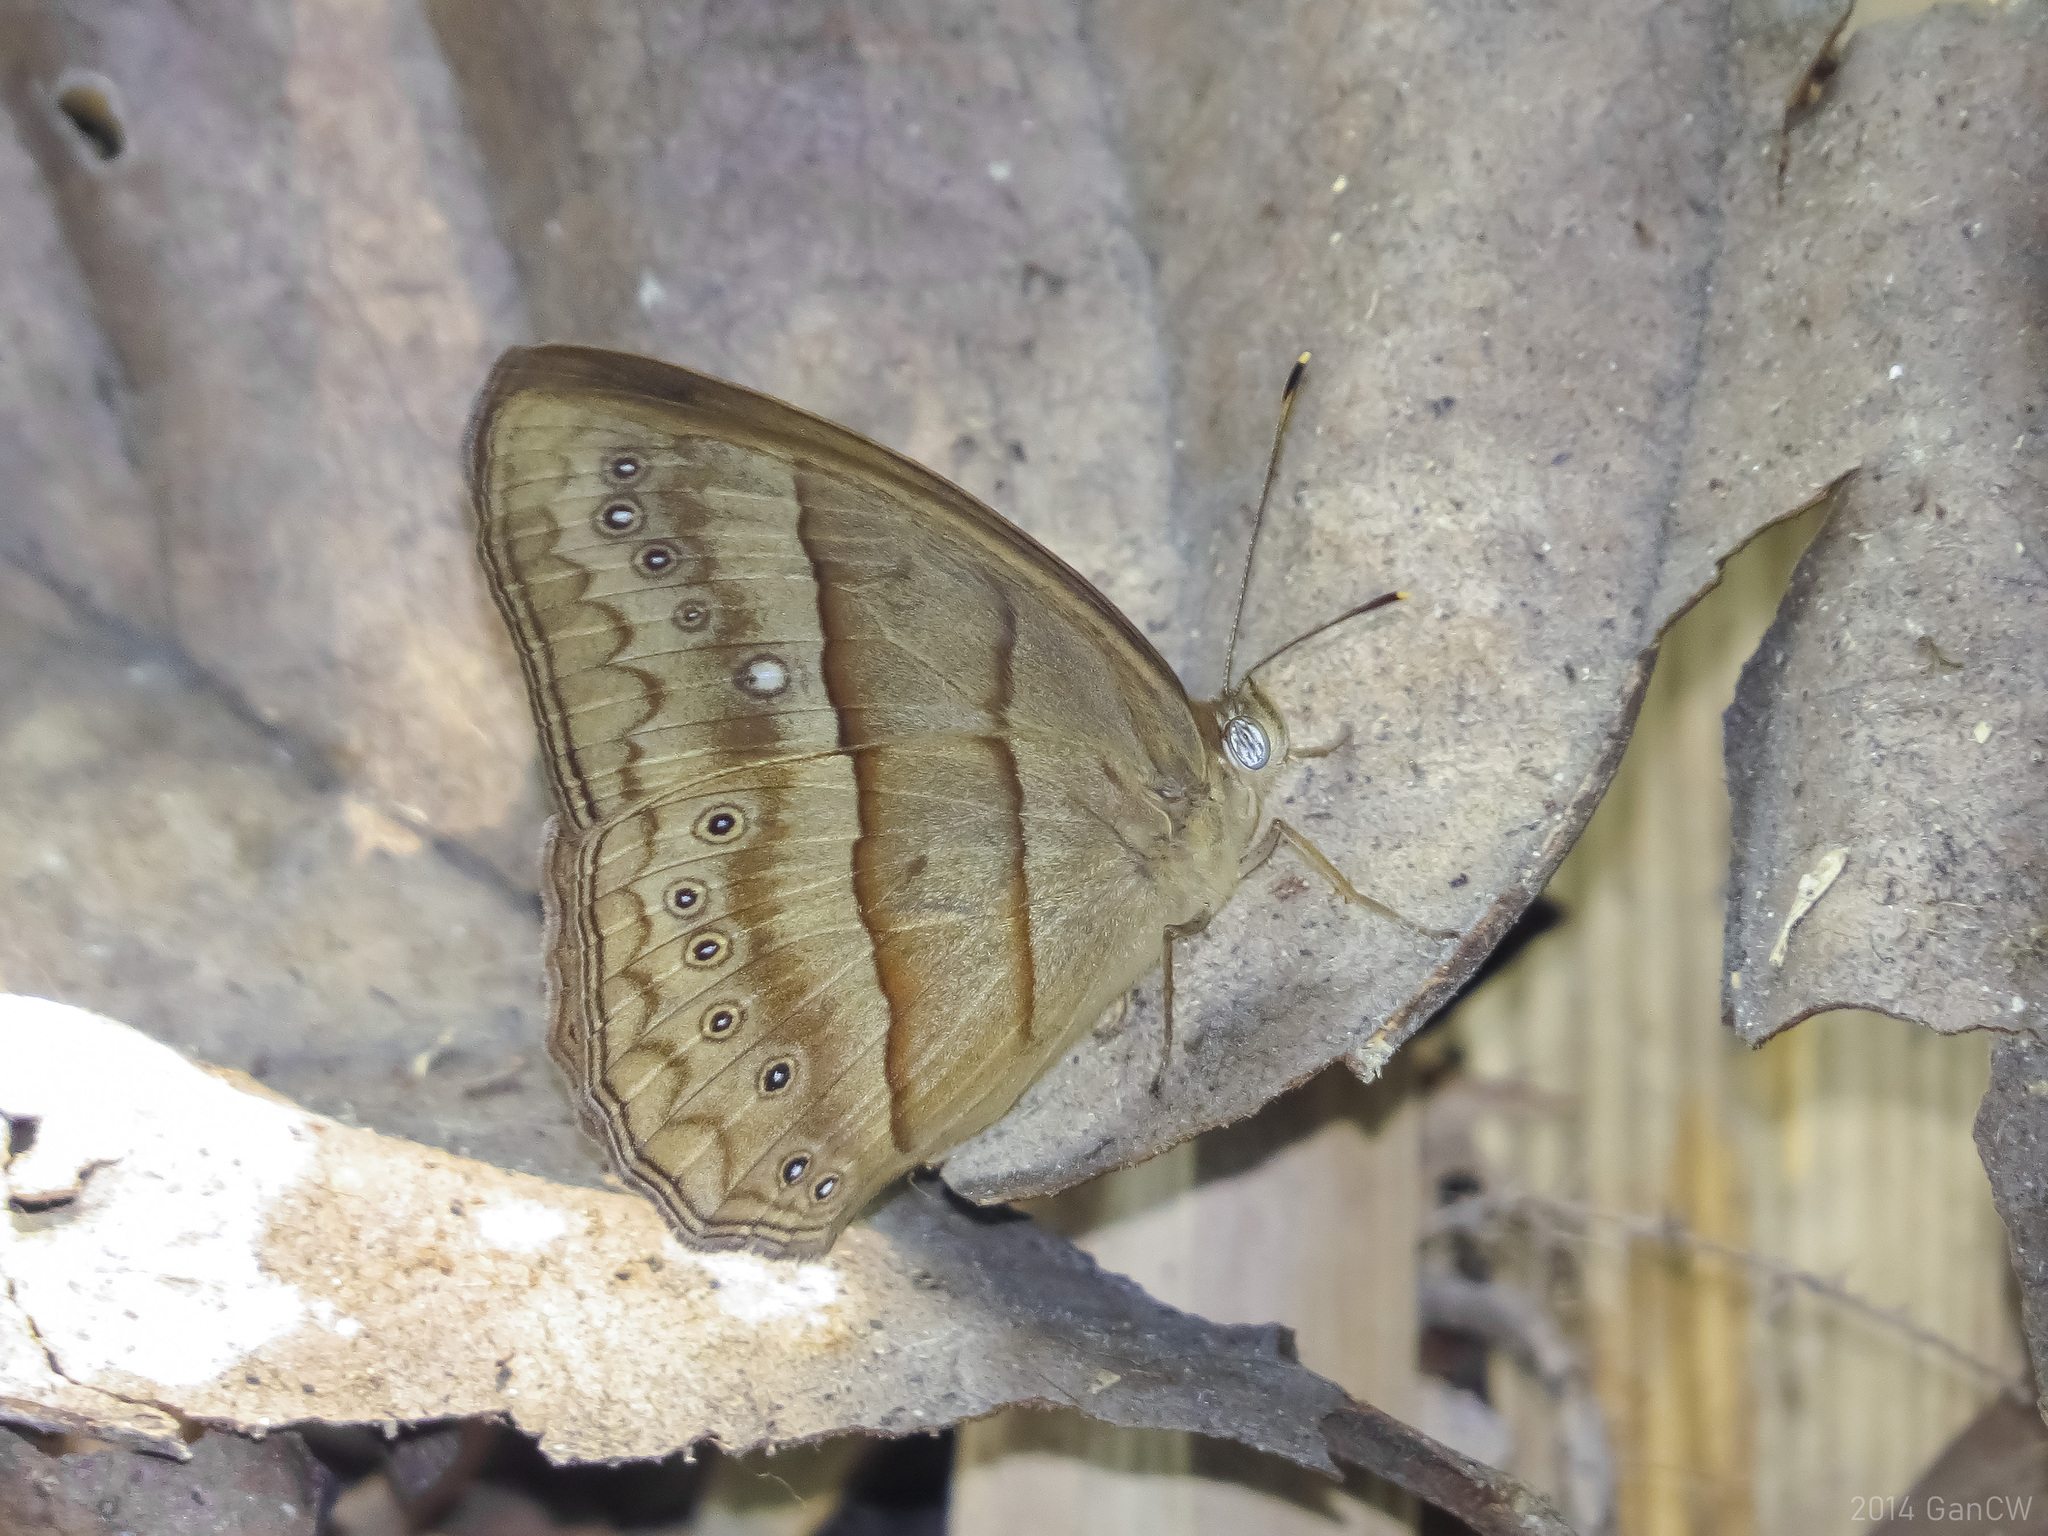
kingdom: Animalia
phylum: Arthropoda
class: Insecta
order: Lepidoptera
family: Nymphalidae
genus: Mycalesis
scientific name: Mycalesis mnasicles
